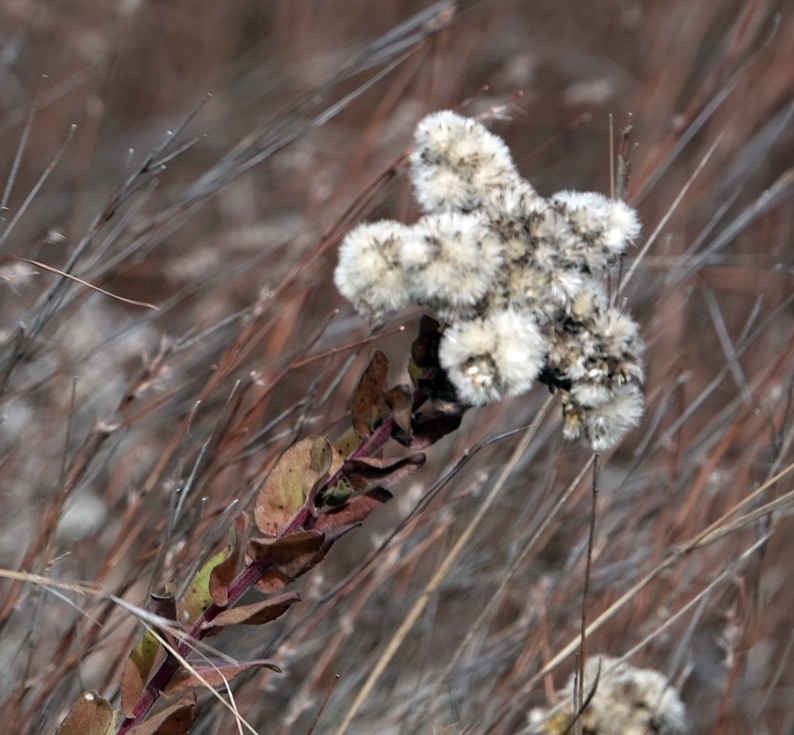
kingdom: Plantae
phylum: Tracheophyta
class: Magnoliopsida
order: Asterales
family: Asteraceae
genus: Solidago
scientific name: Solidago rigida
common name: Rigid goldenrod
